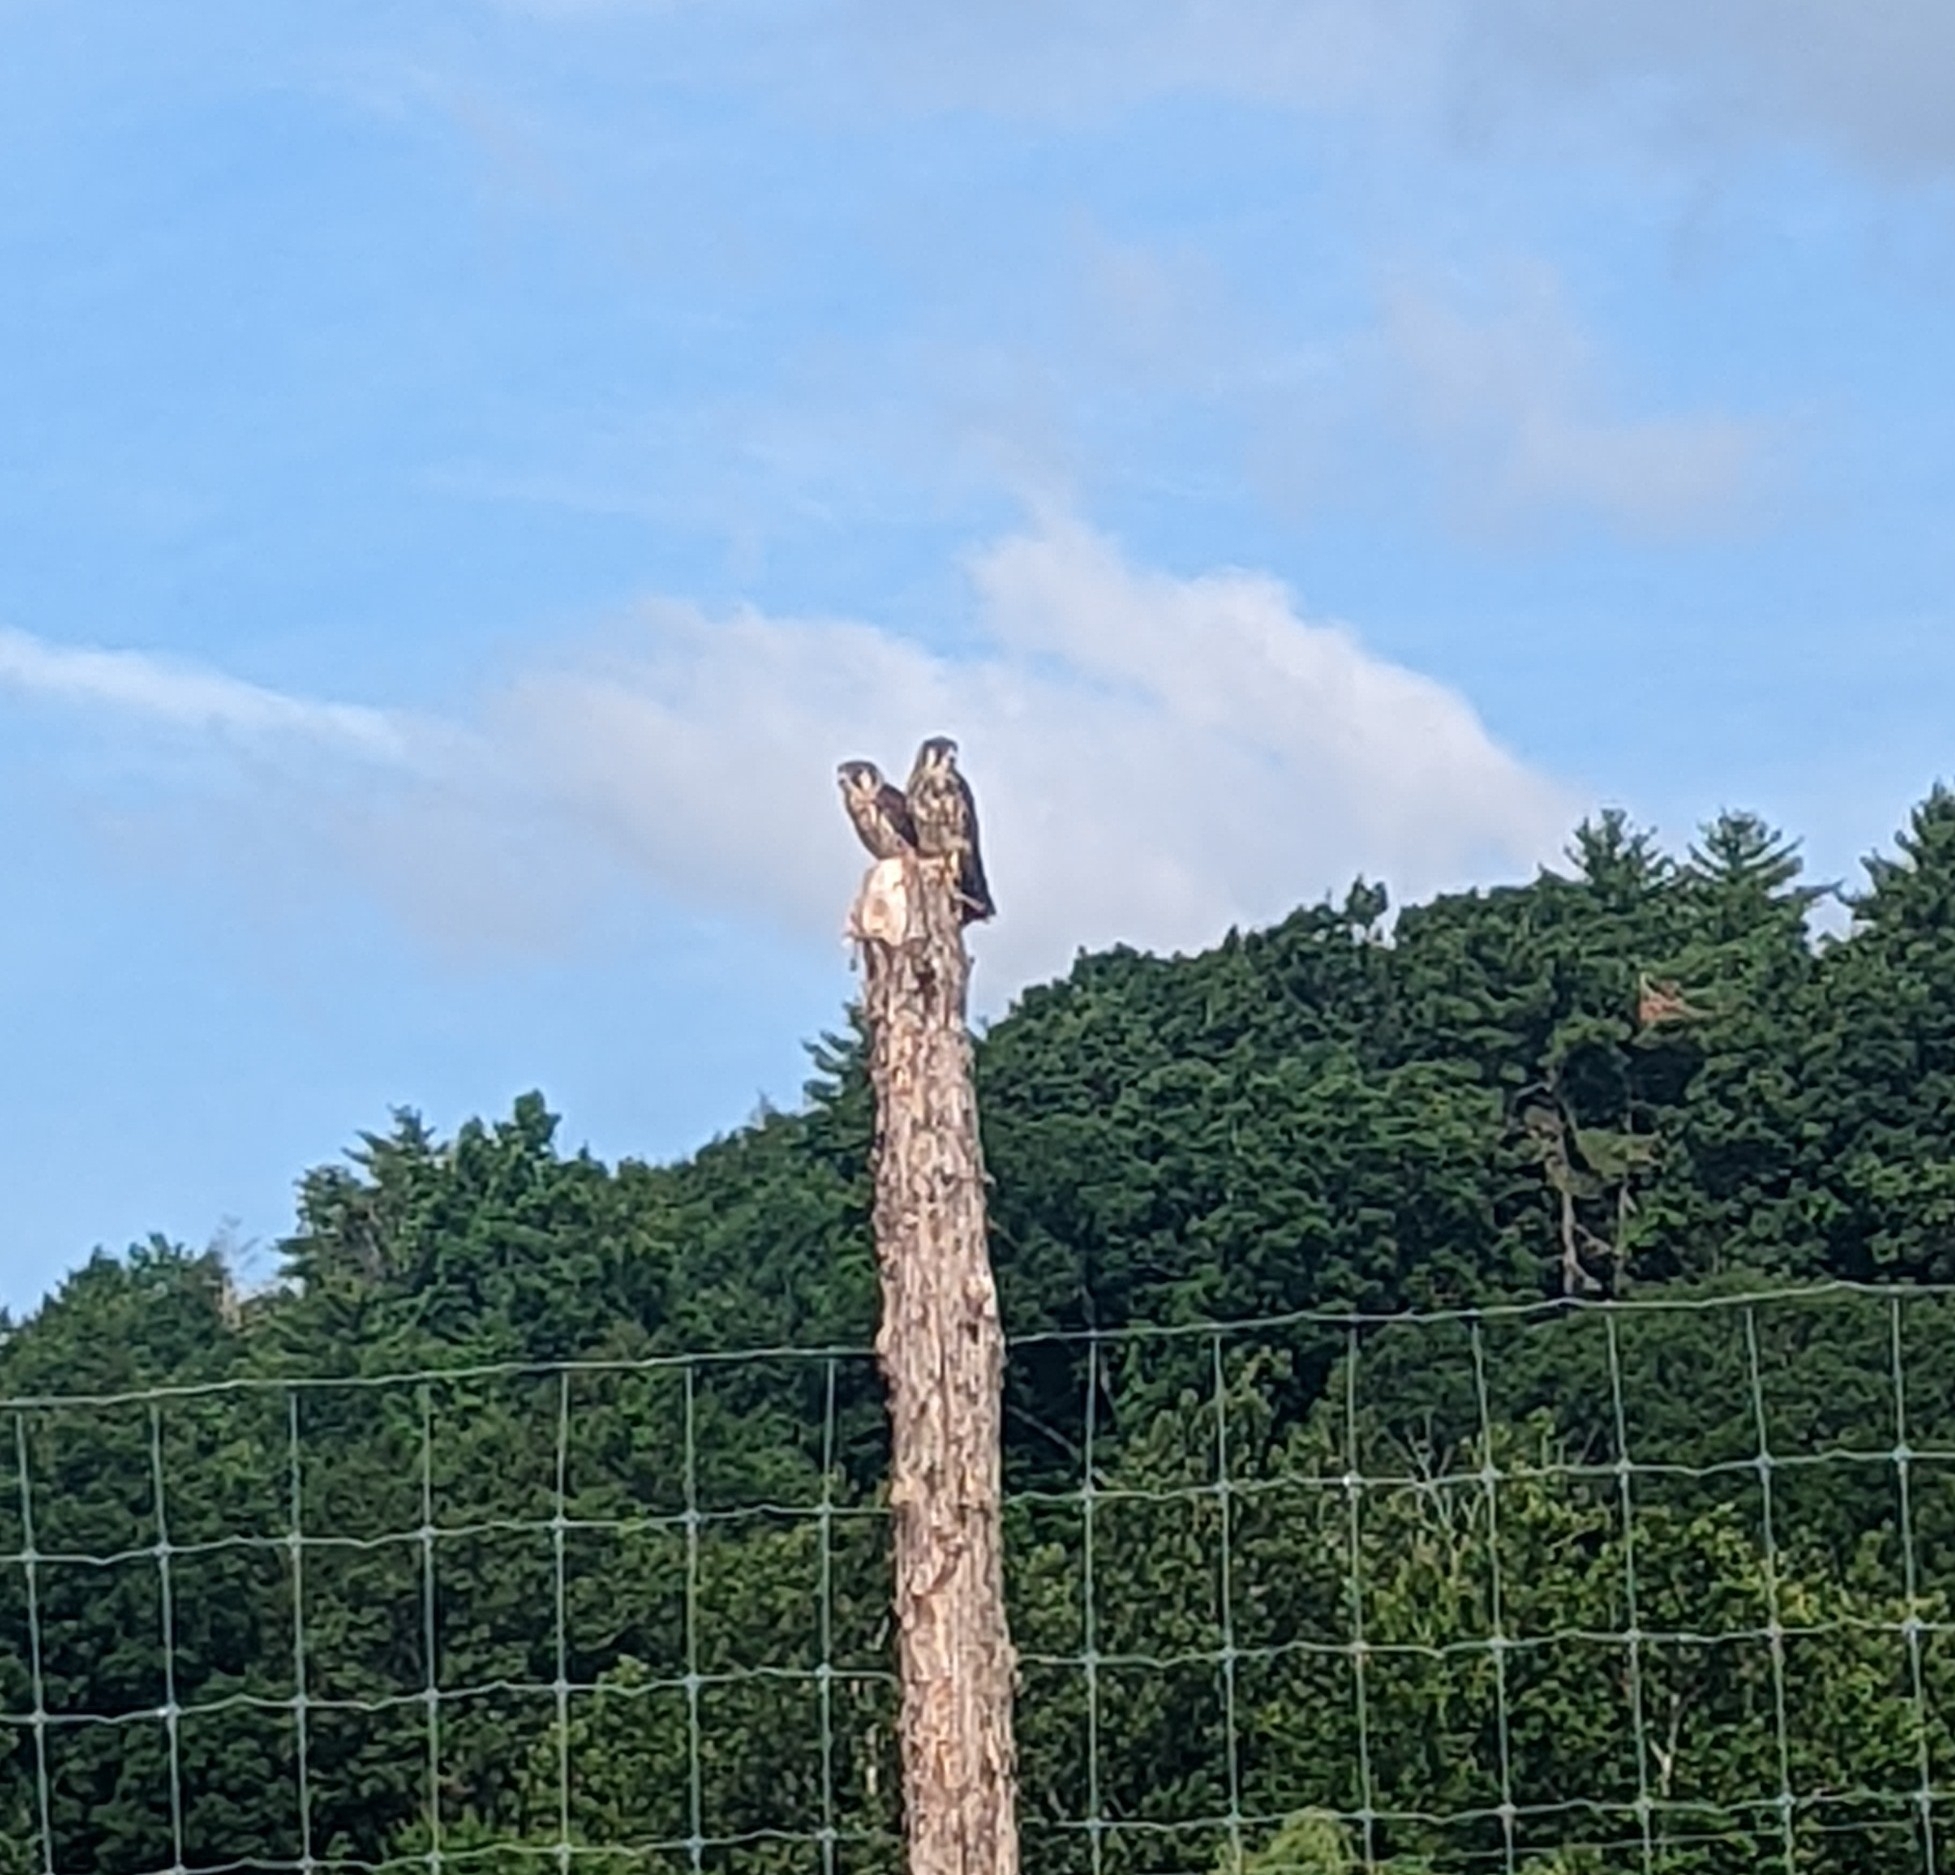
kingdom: Animalia
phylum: Chordata
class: Aves
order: Falconiformes
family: Falconidae
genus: Falco
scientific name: Falco sparverius
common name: American kestrel
